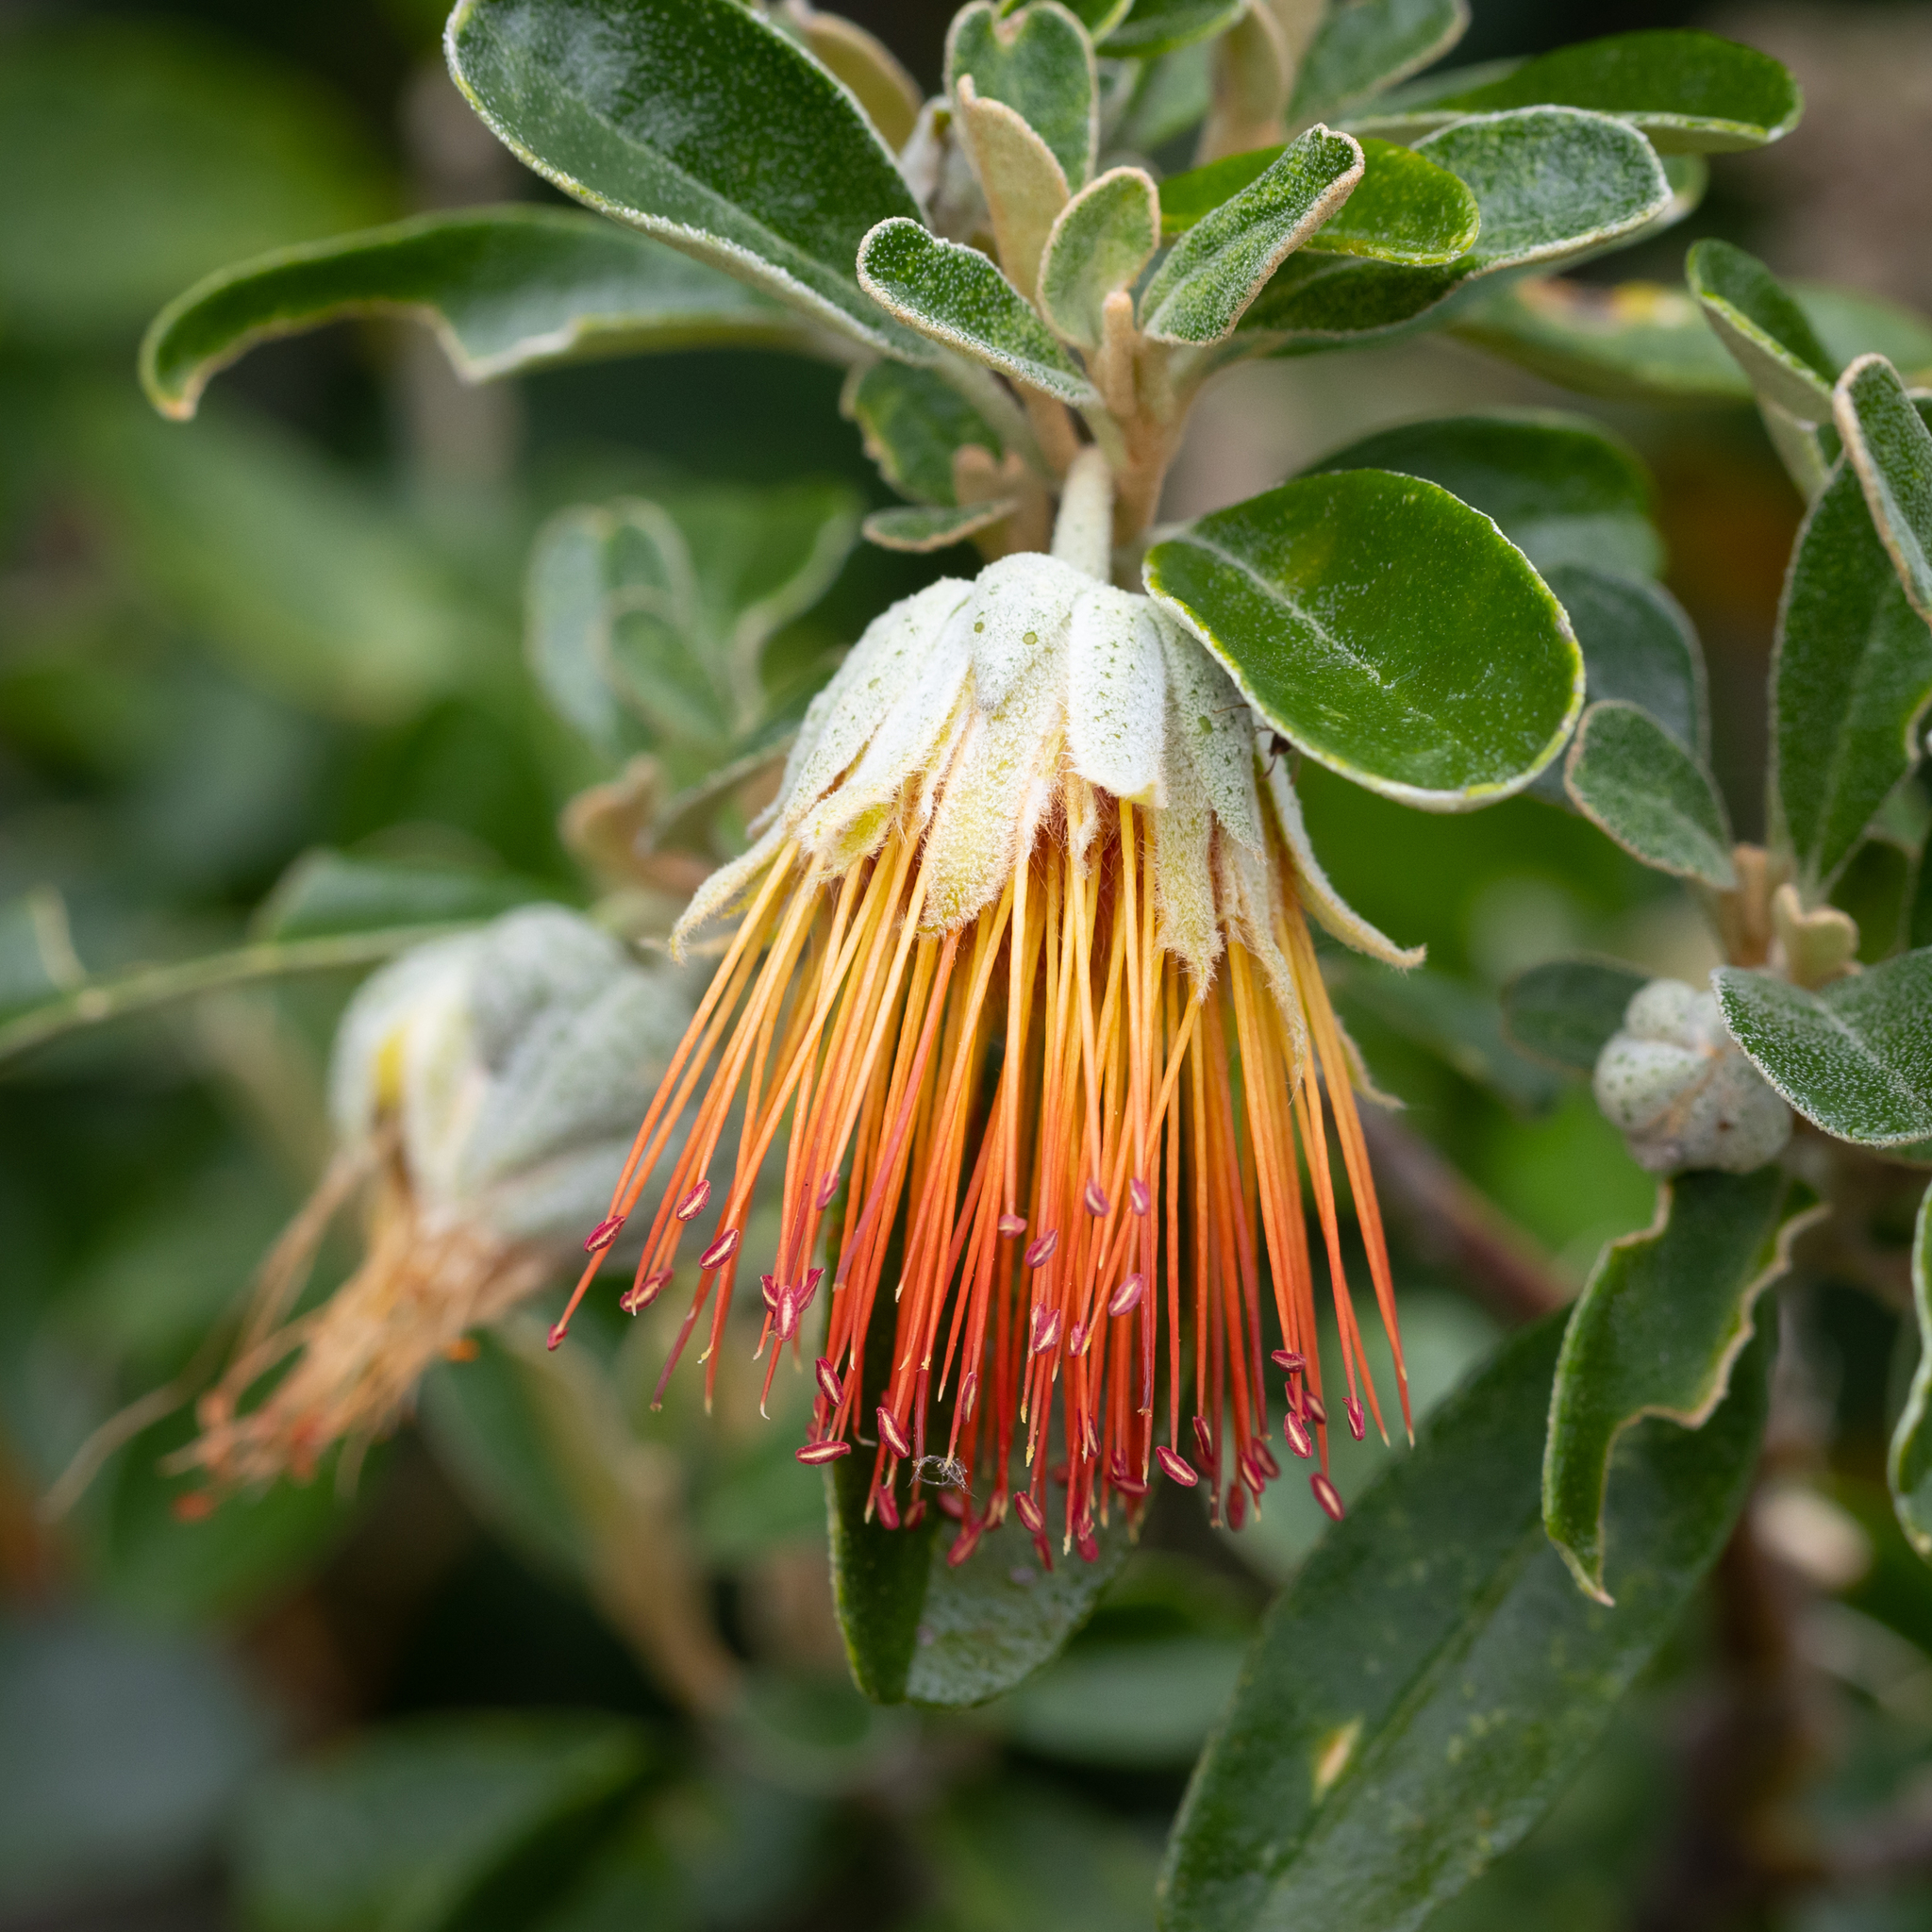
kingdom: Plantae
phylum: Tracheophyta
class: Magnoliopsida
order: Sapindales
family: Rutaceae
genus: Diplolaena
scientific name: Diplolaena dampieri
